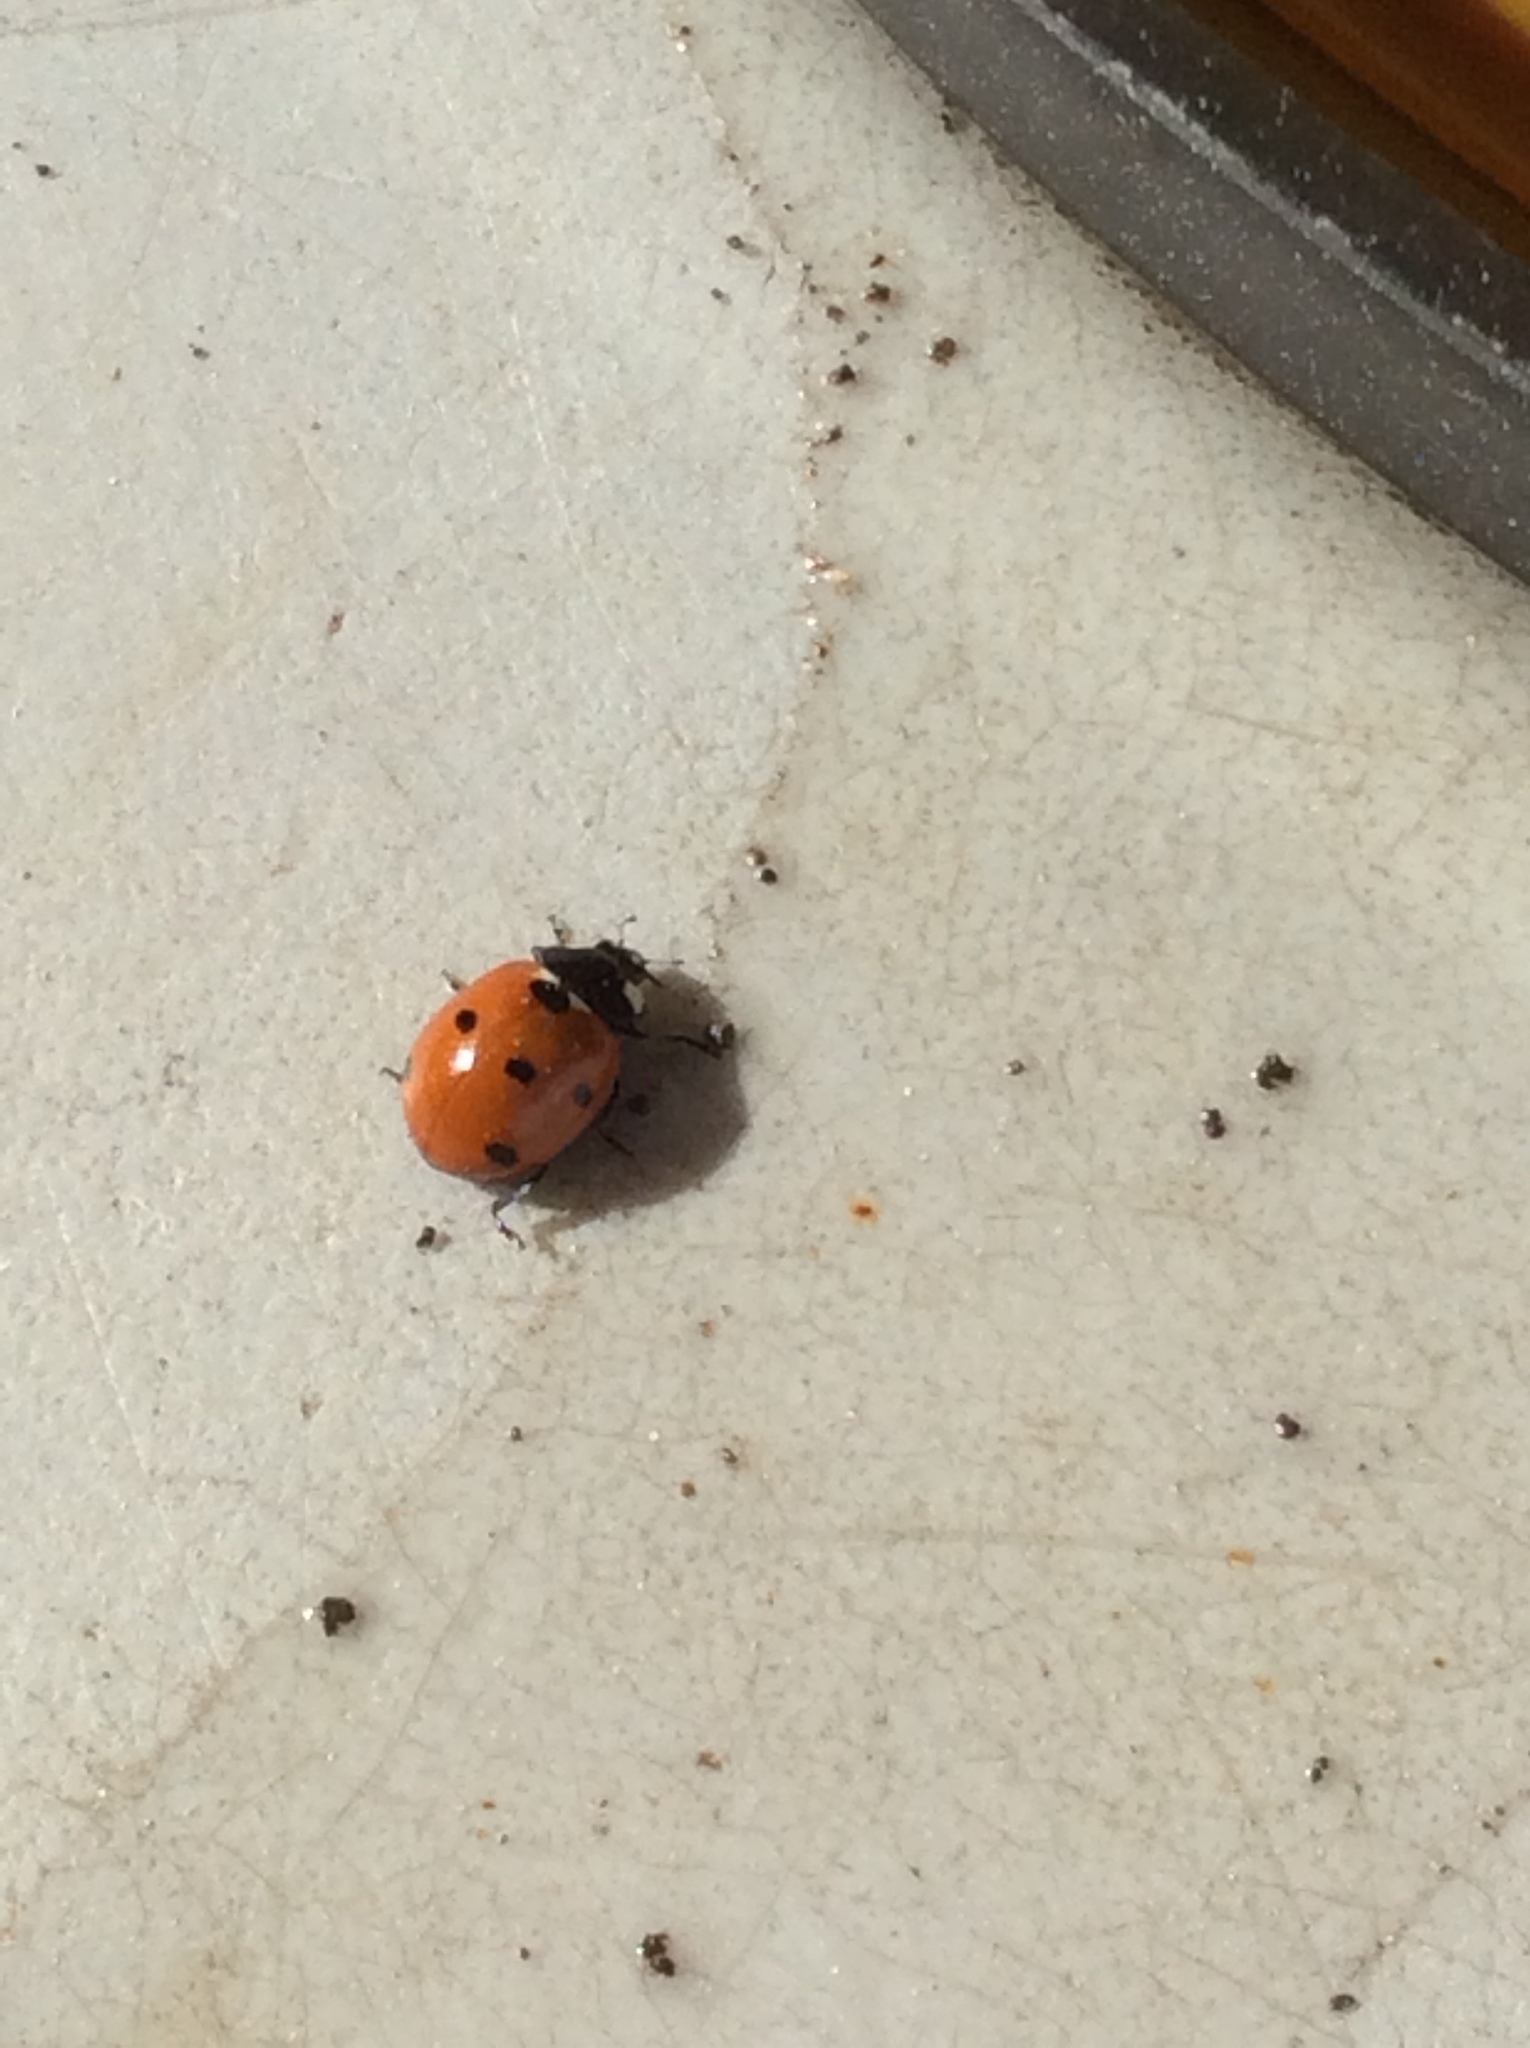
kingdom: Animalia
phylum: Arthropoda
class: Insecta
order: Coleoptera
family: Coccinellidae
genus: Coccinella
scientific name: Coccinella septempunctata
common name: Sevenspotted lady beetle
